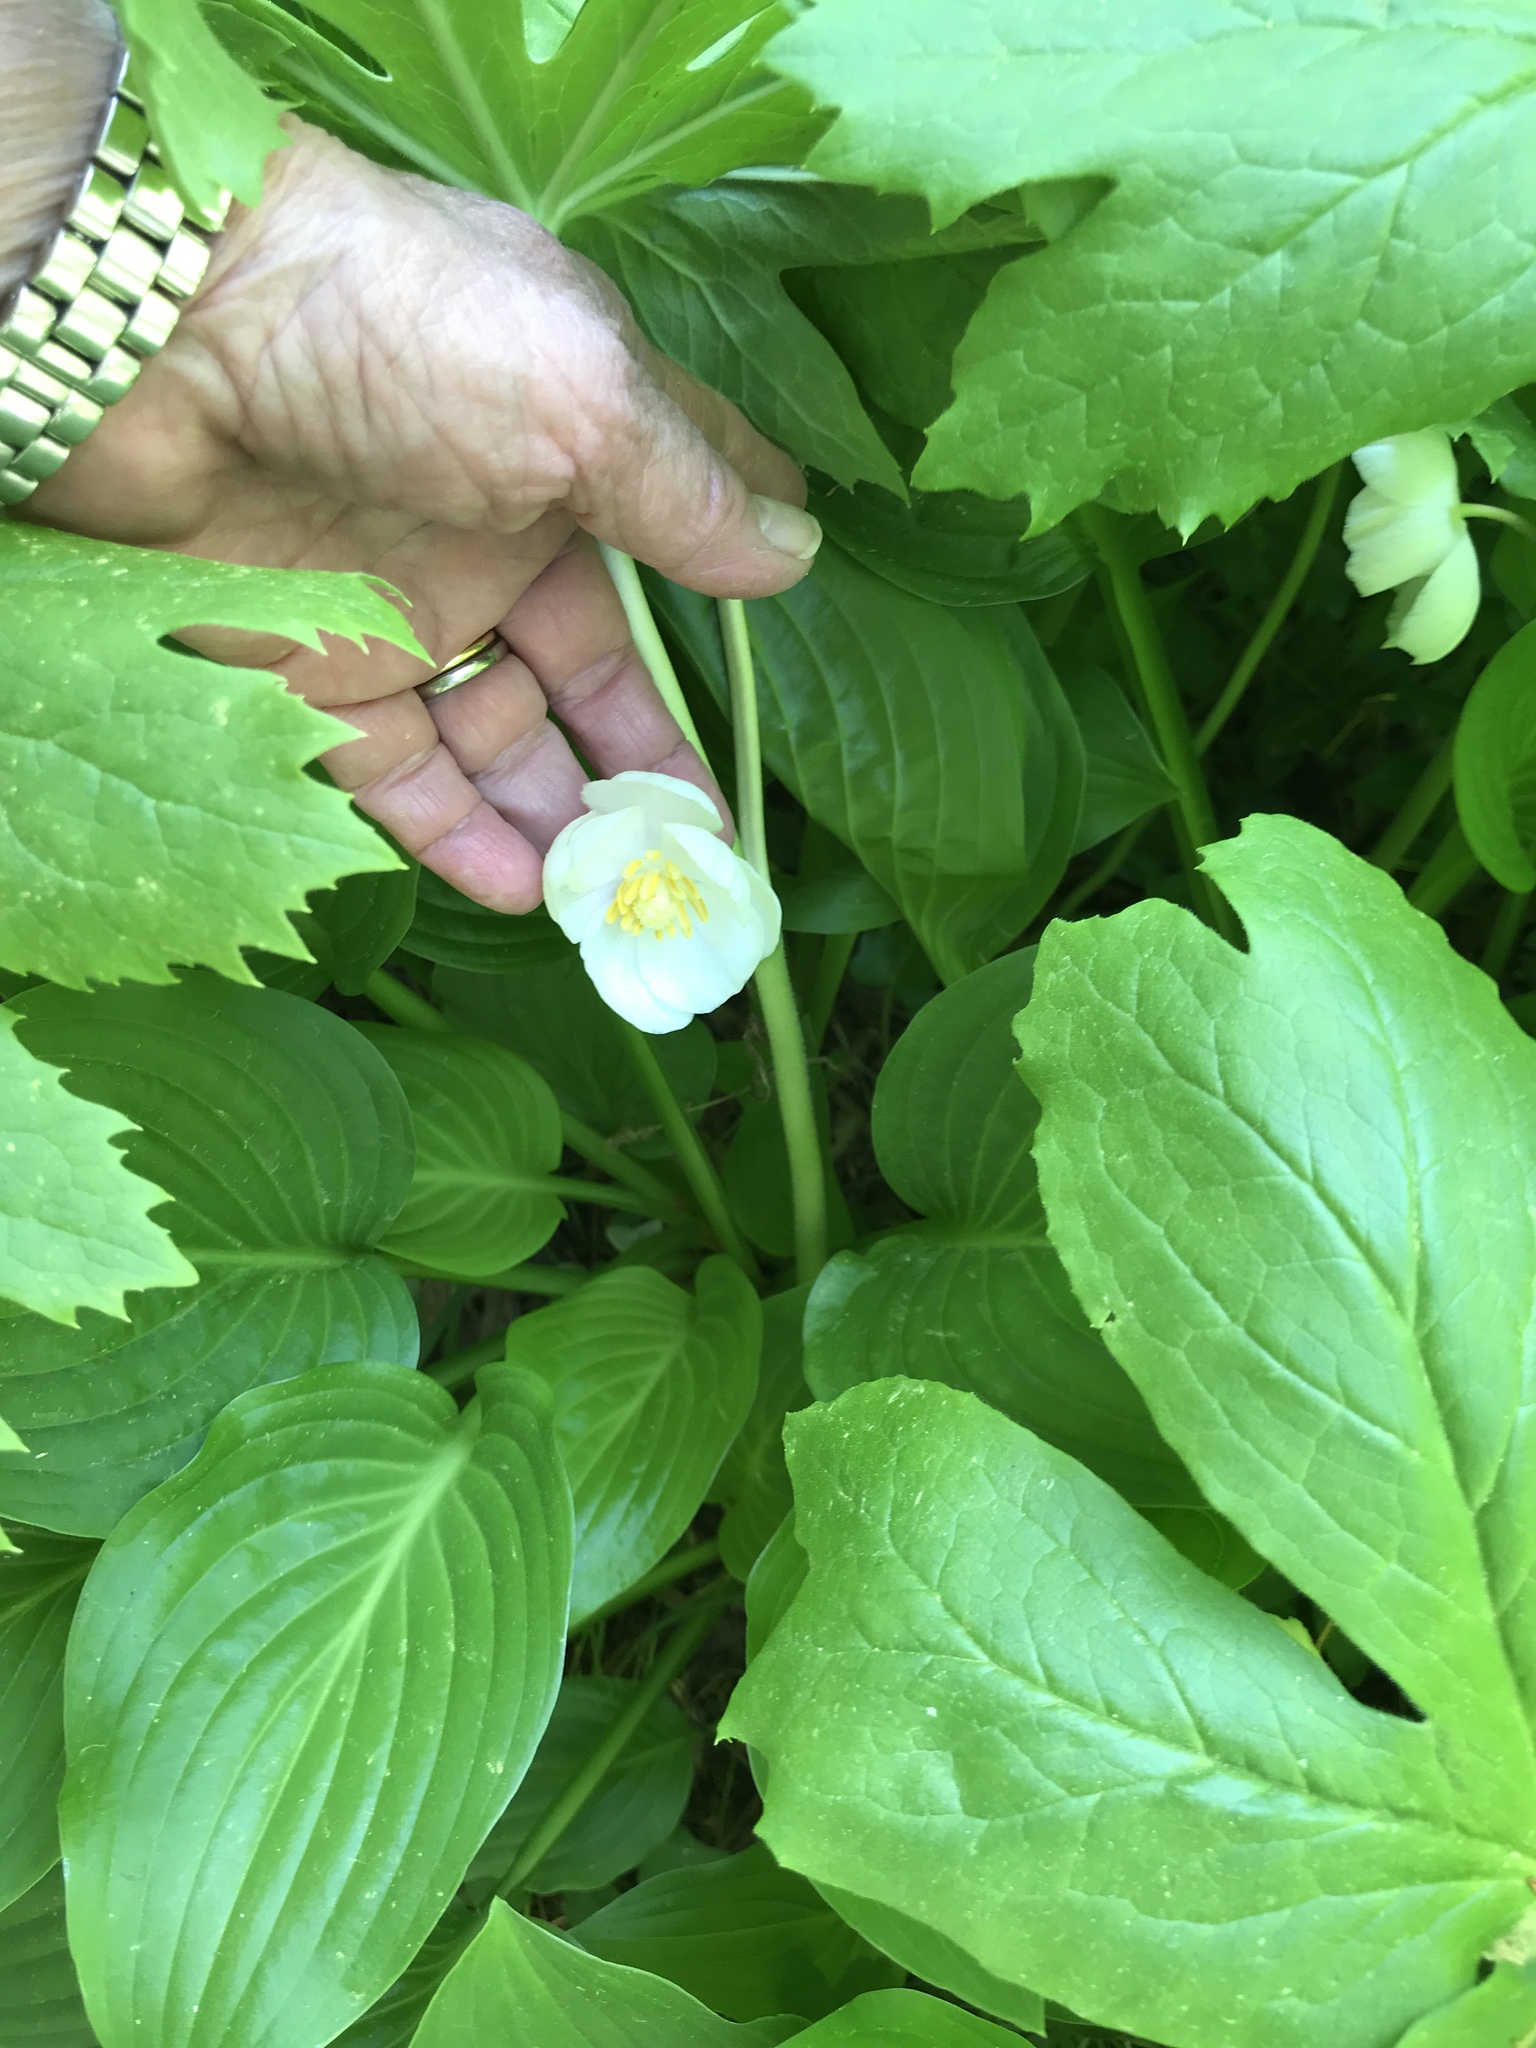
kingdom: Plantae
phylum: Tracheophyta
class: Magnoliopsida
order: Ranunculales
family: Berberidaceae
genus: Podophyllum
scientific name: Podophyllum peltatum
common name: Wild mandrake
